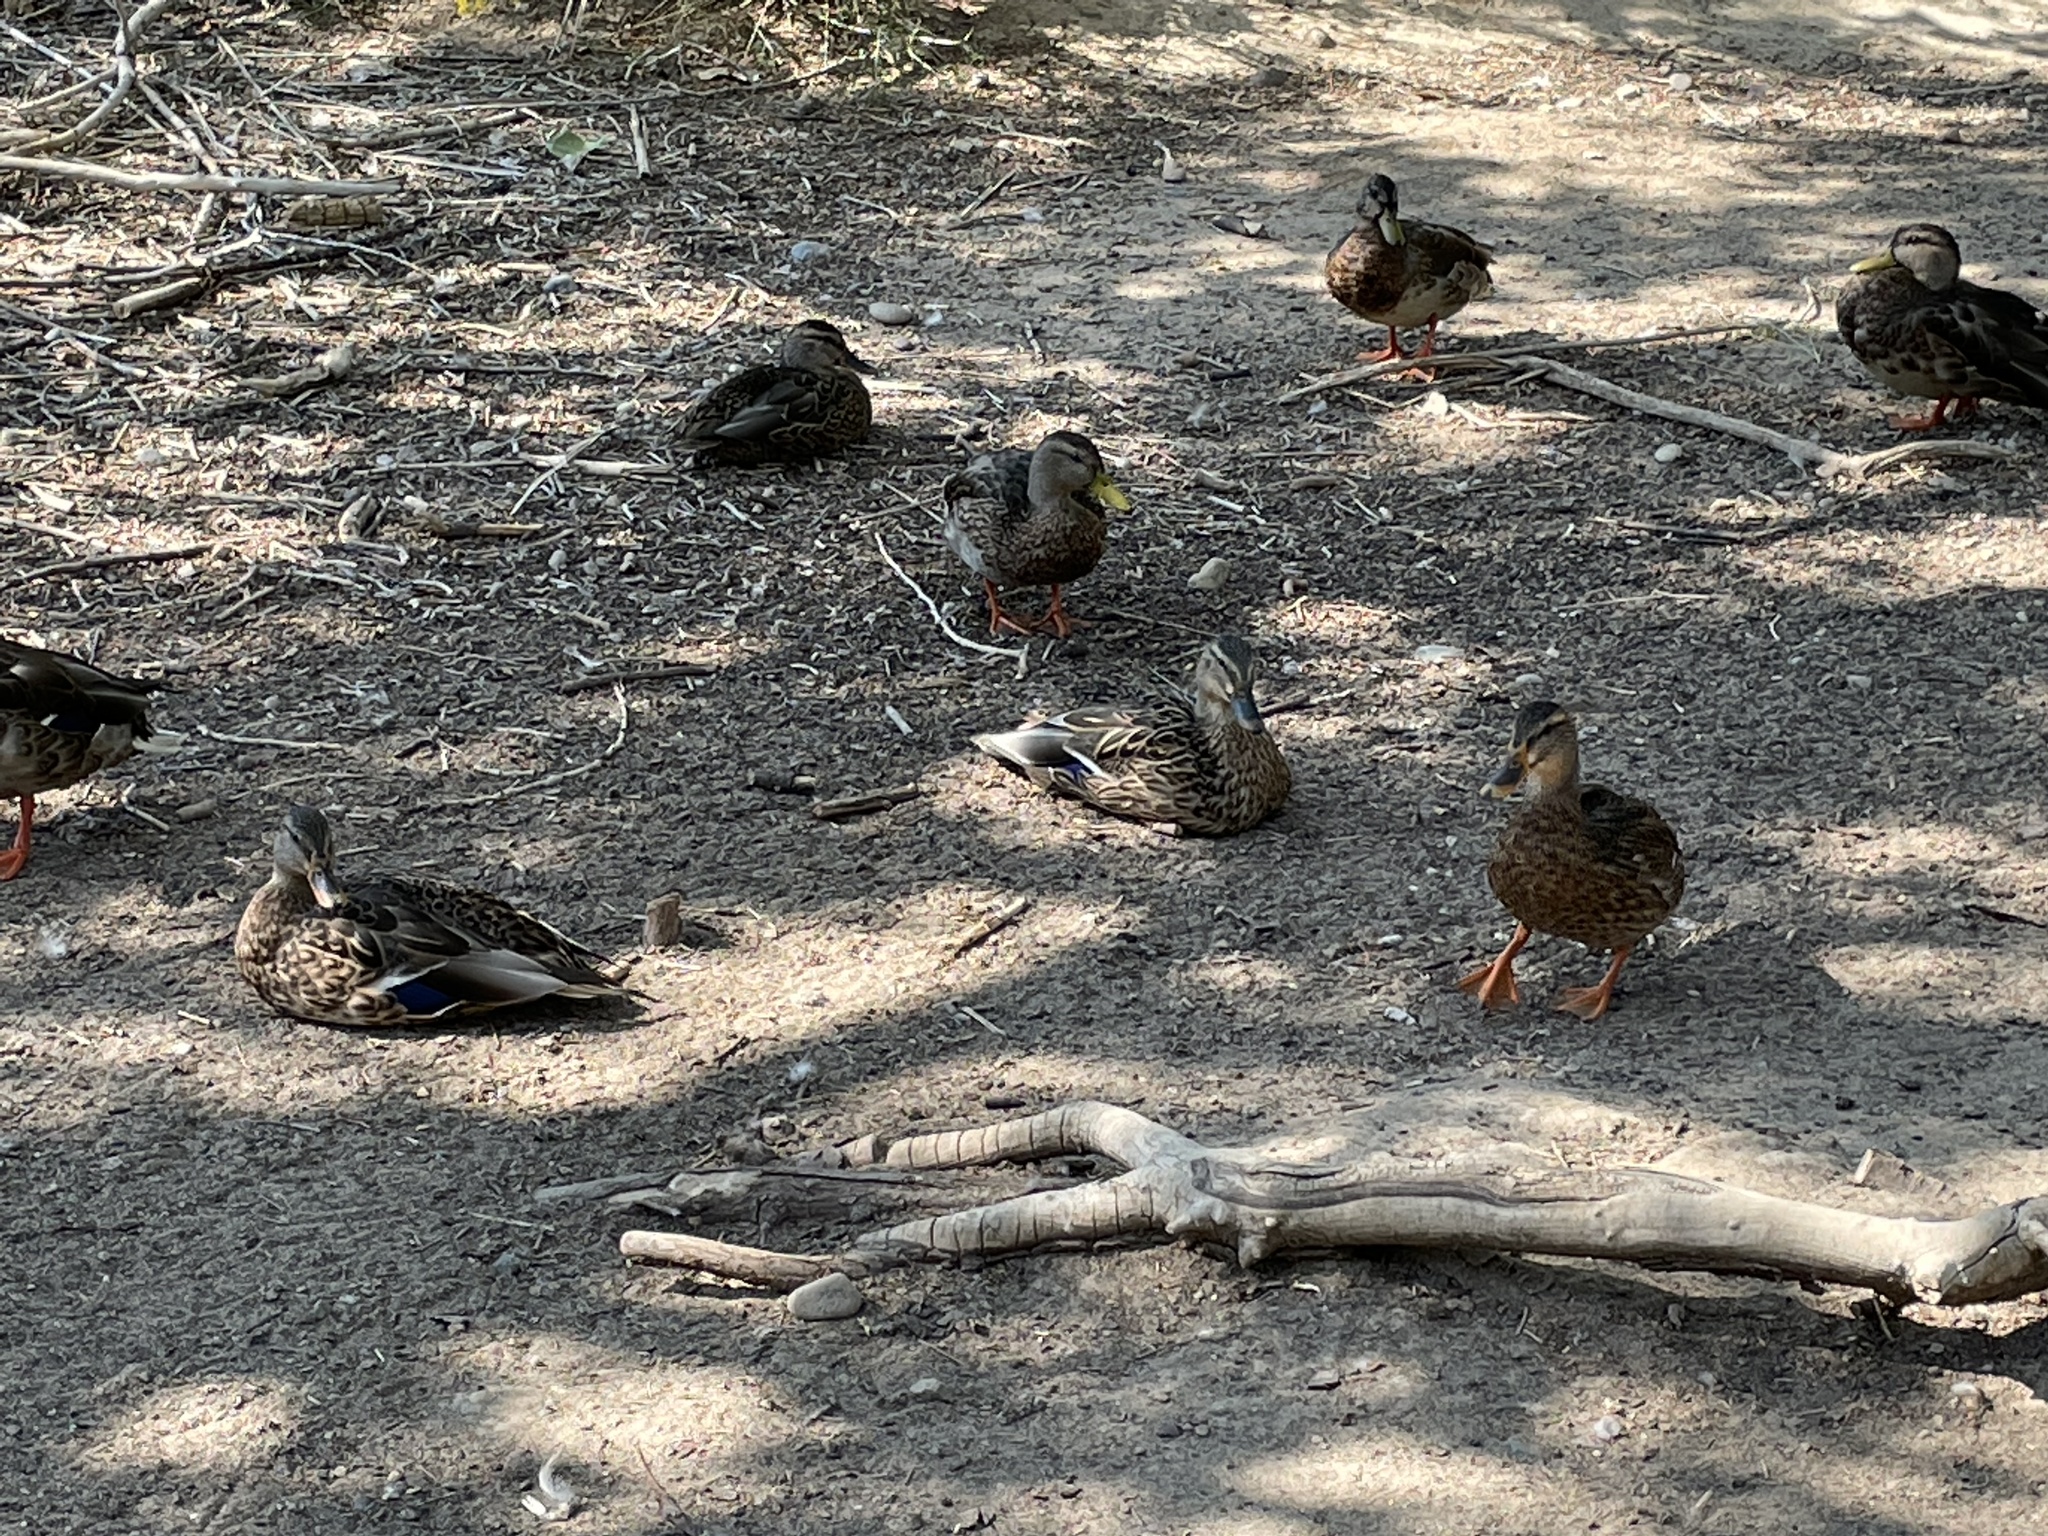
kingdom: Animalia
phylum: Chordata
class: Aves
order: Anseriformes
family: Anatidae
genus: Anas
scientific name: Anas platyrhynchos
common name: Mallard
